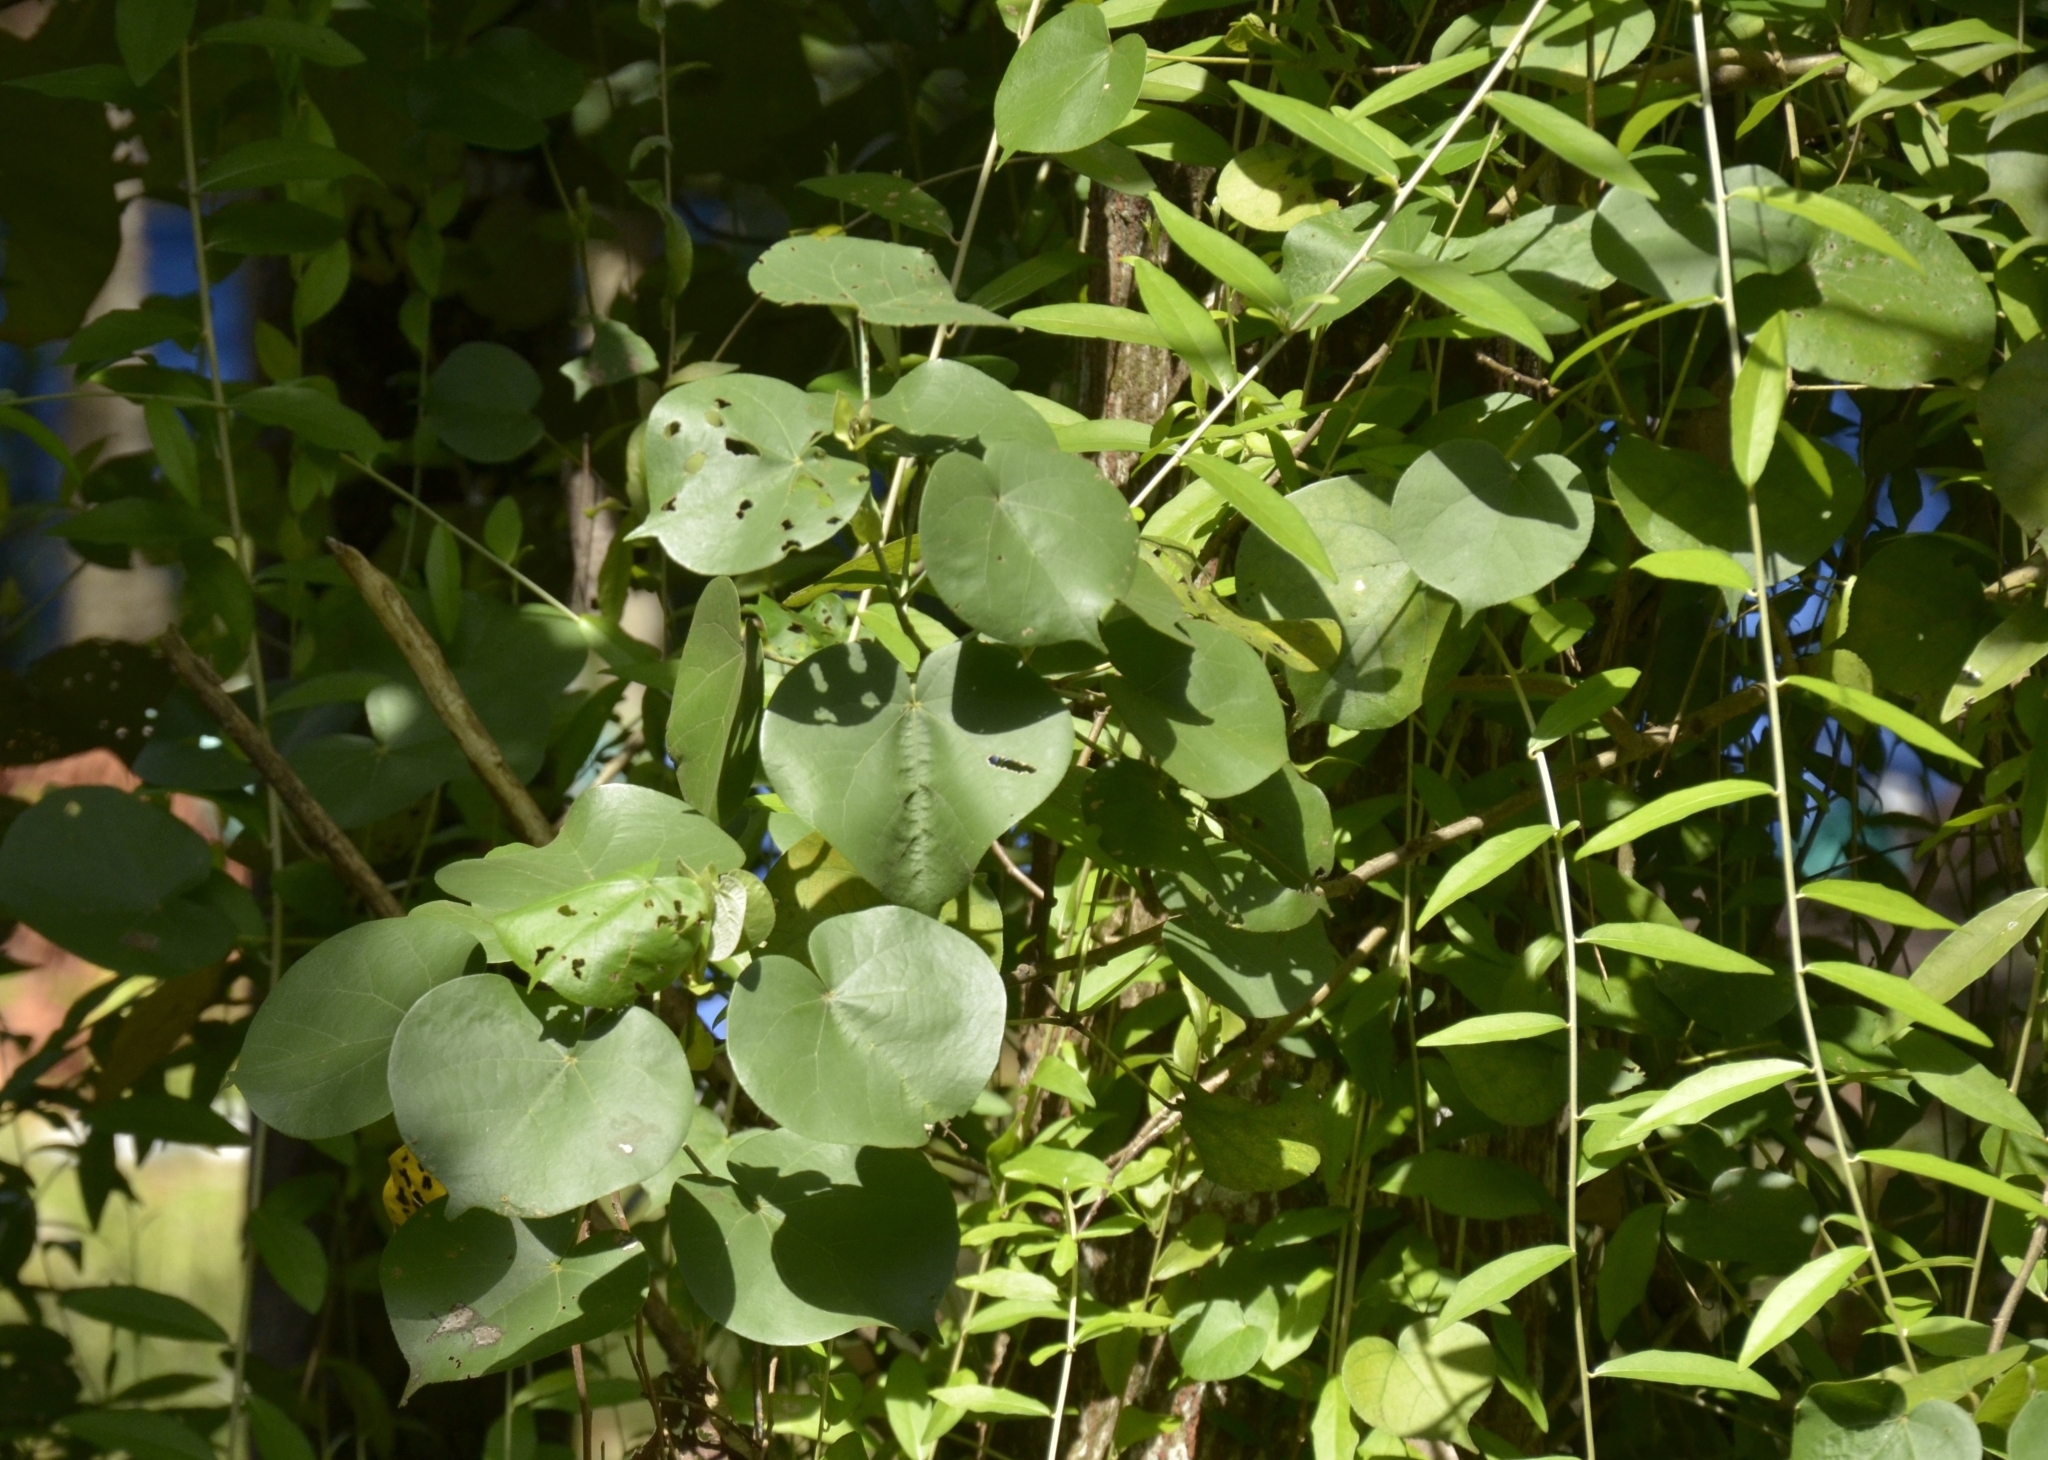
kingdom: Plantae
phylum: Tracheophyta
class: Magnoliopsida
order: Malvales
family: Malvaceae
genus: Talipariti
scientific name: Talipariti tiliaceum
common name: Sea hibiscus
